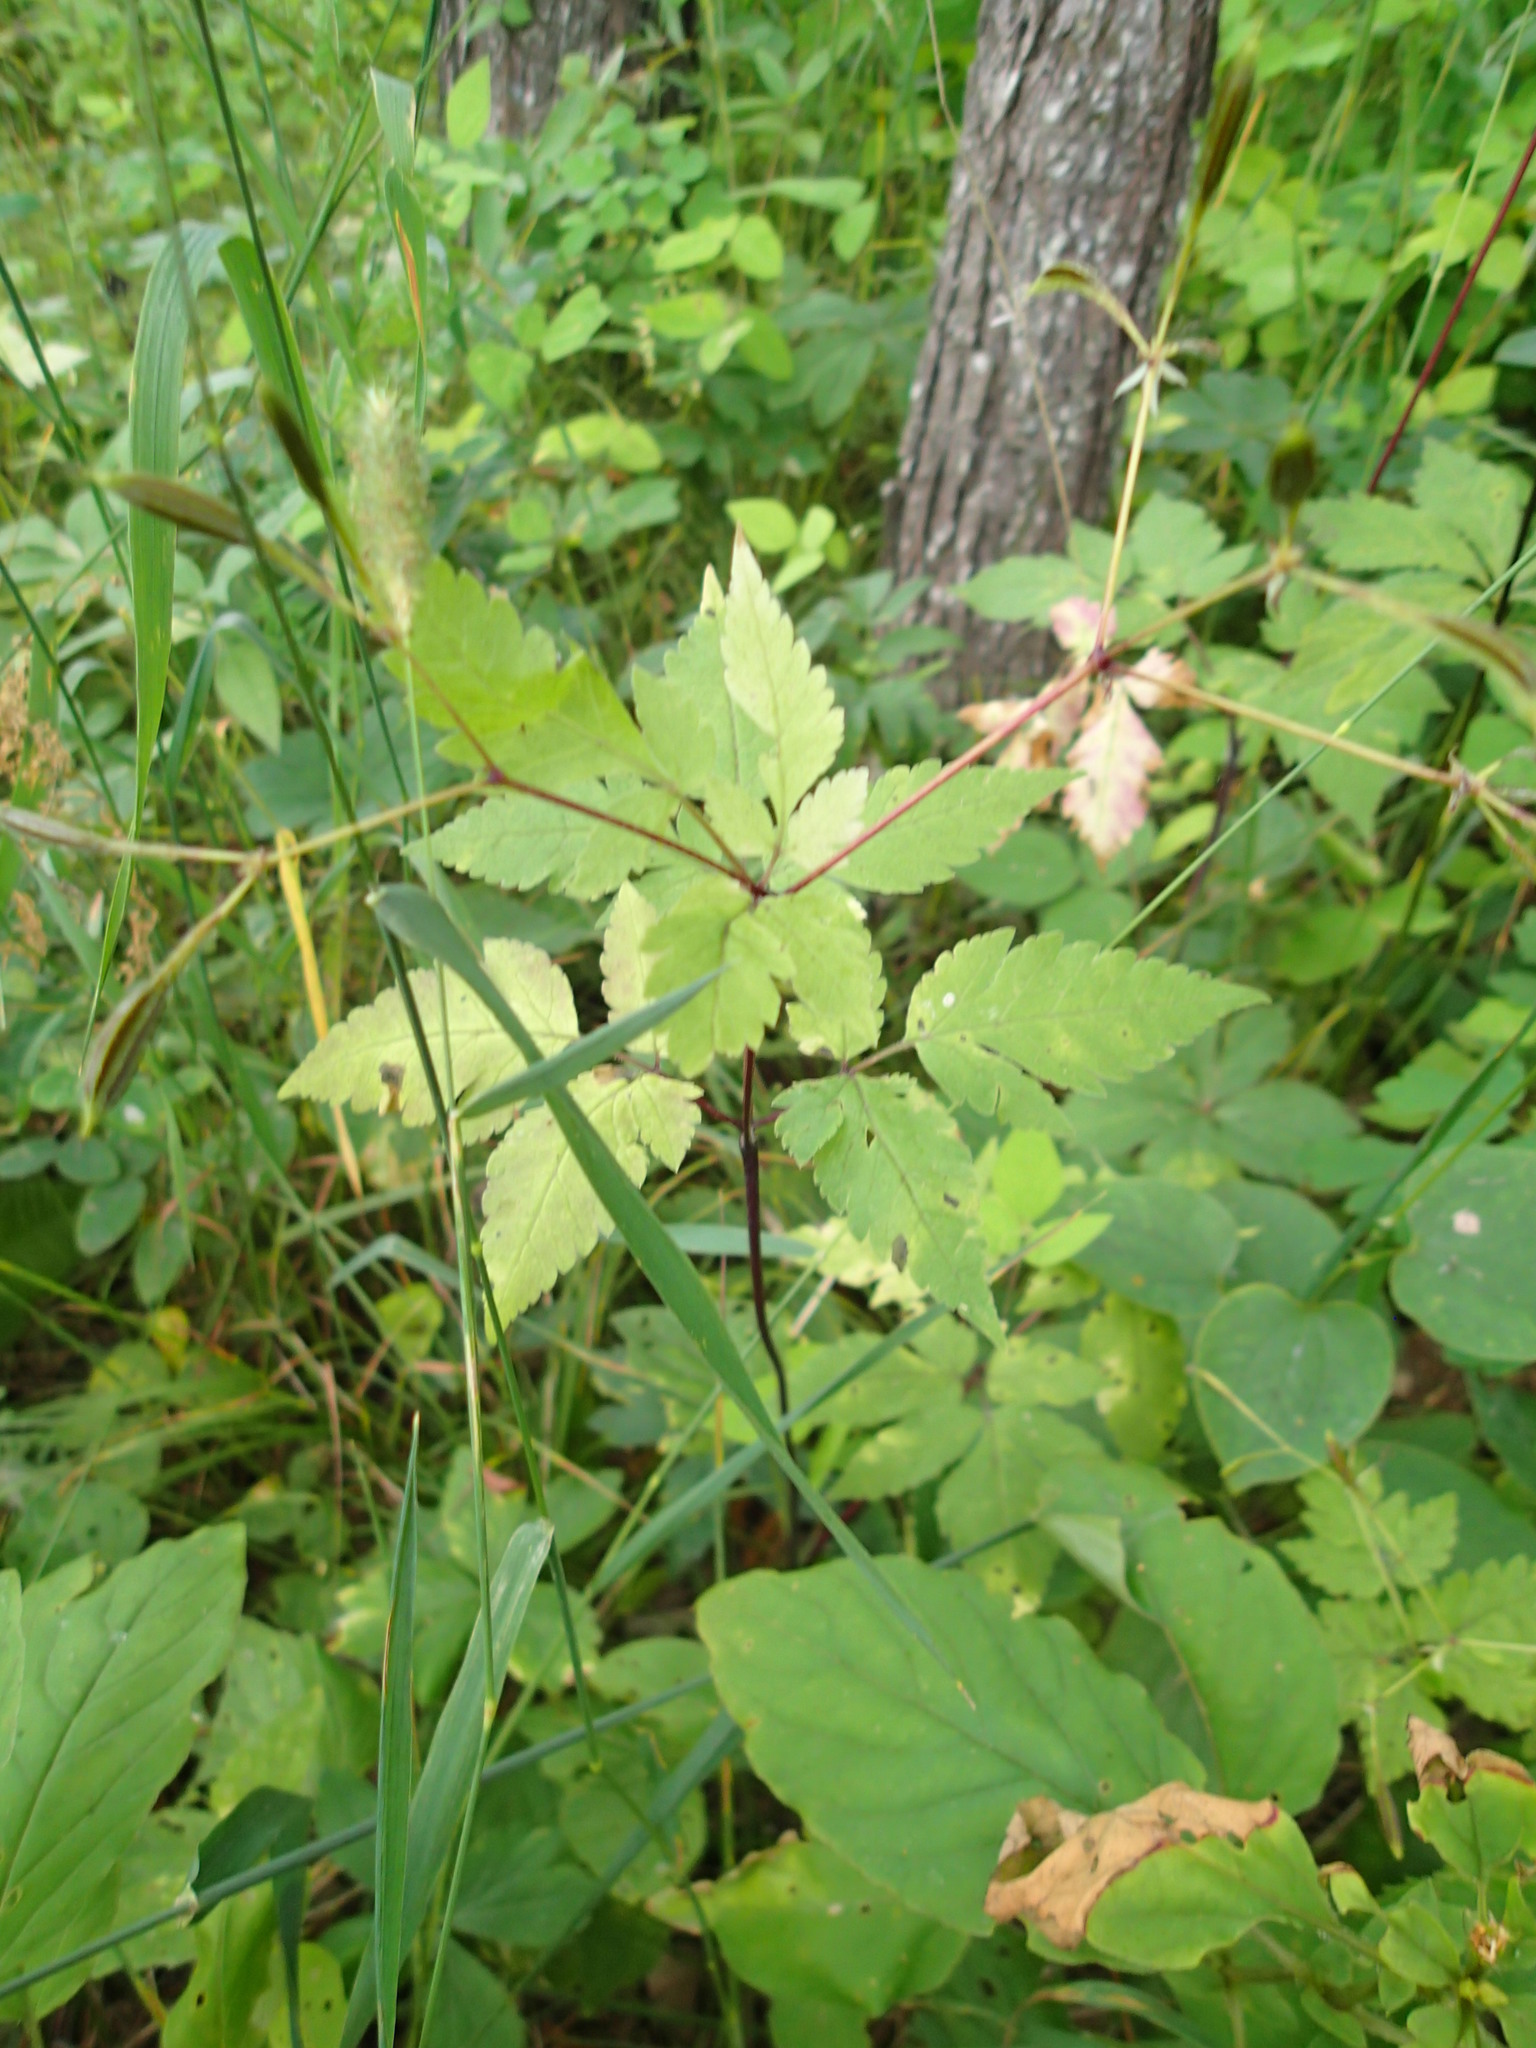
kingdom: Plantae
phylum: Tracheophyta
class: Magnoliopsida
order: Apiales
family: Apiaceae
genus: Osmorhiza
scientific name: Osmorhiza claytonii
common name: Hairy sweet cicely
